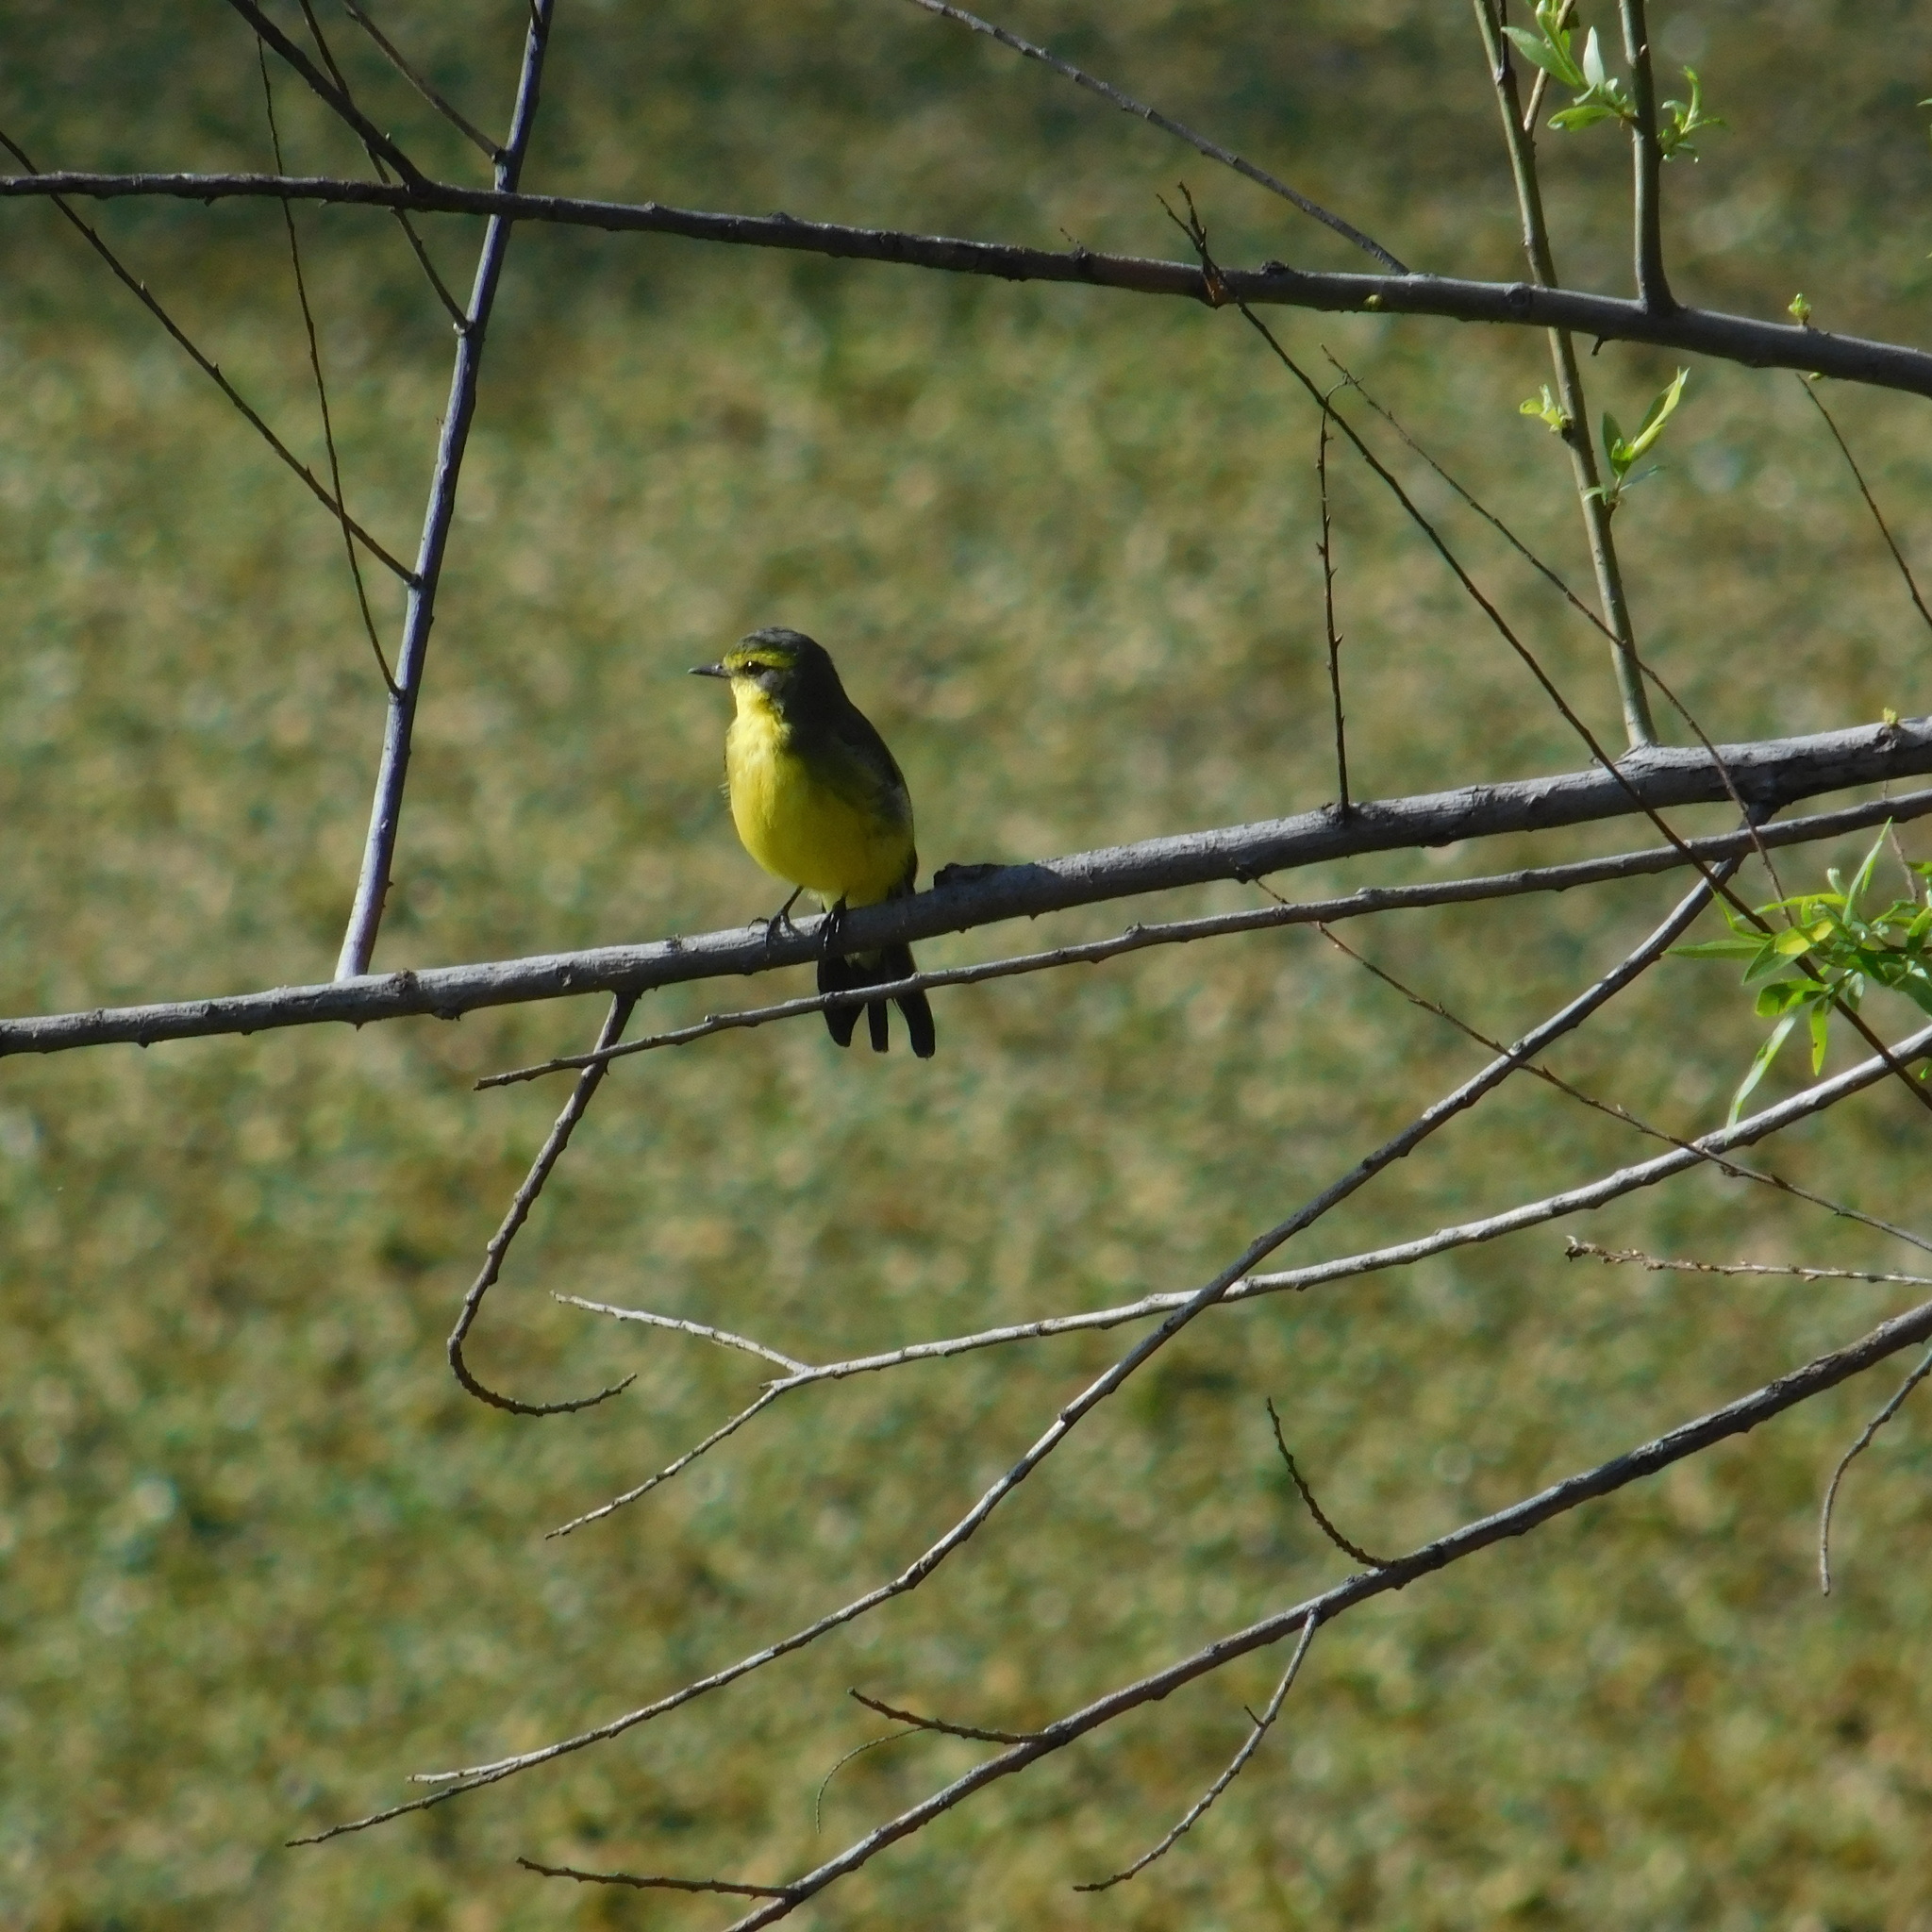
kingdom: Animalia
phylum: Chordata
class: Aves
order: Passeriformes
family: Tyrannidae
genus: Satrapa
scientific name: Satrapa icterophrys
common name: Yellow-browed tyrant
